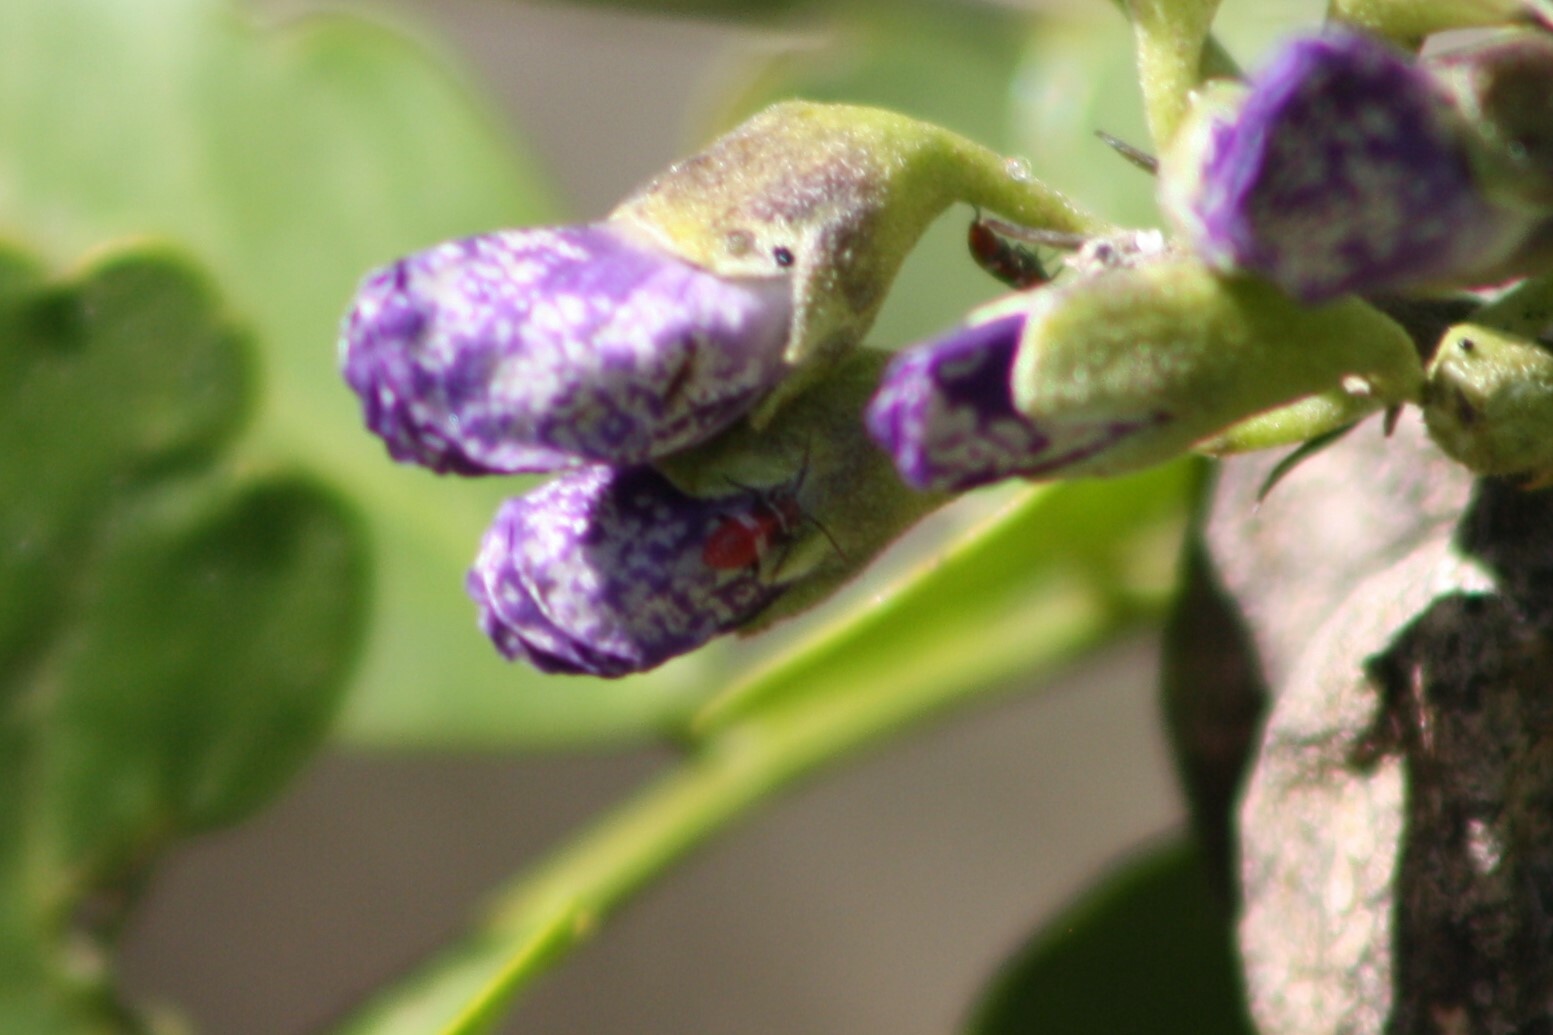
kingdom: Animalia
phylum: Arthropoda
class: Insecta
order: Hemiptera
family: Miridae
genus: Lopidea
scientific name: Lopidea major
